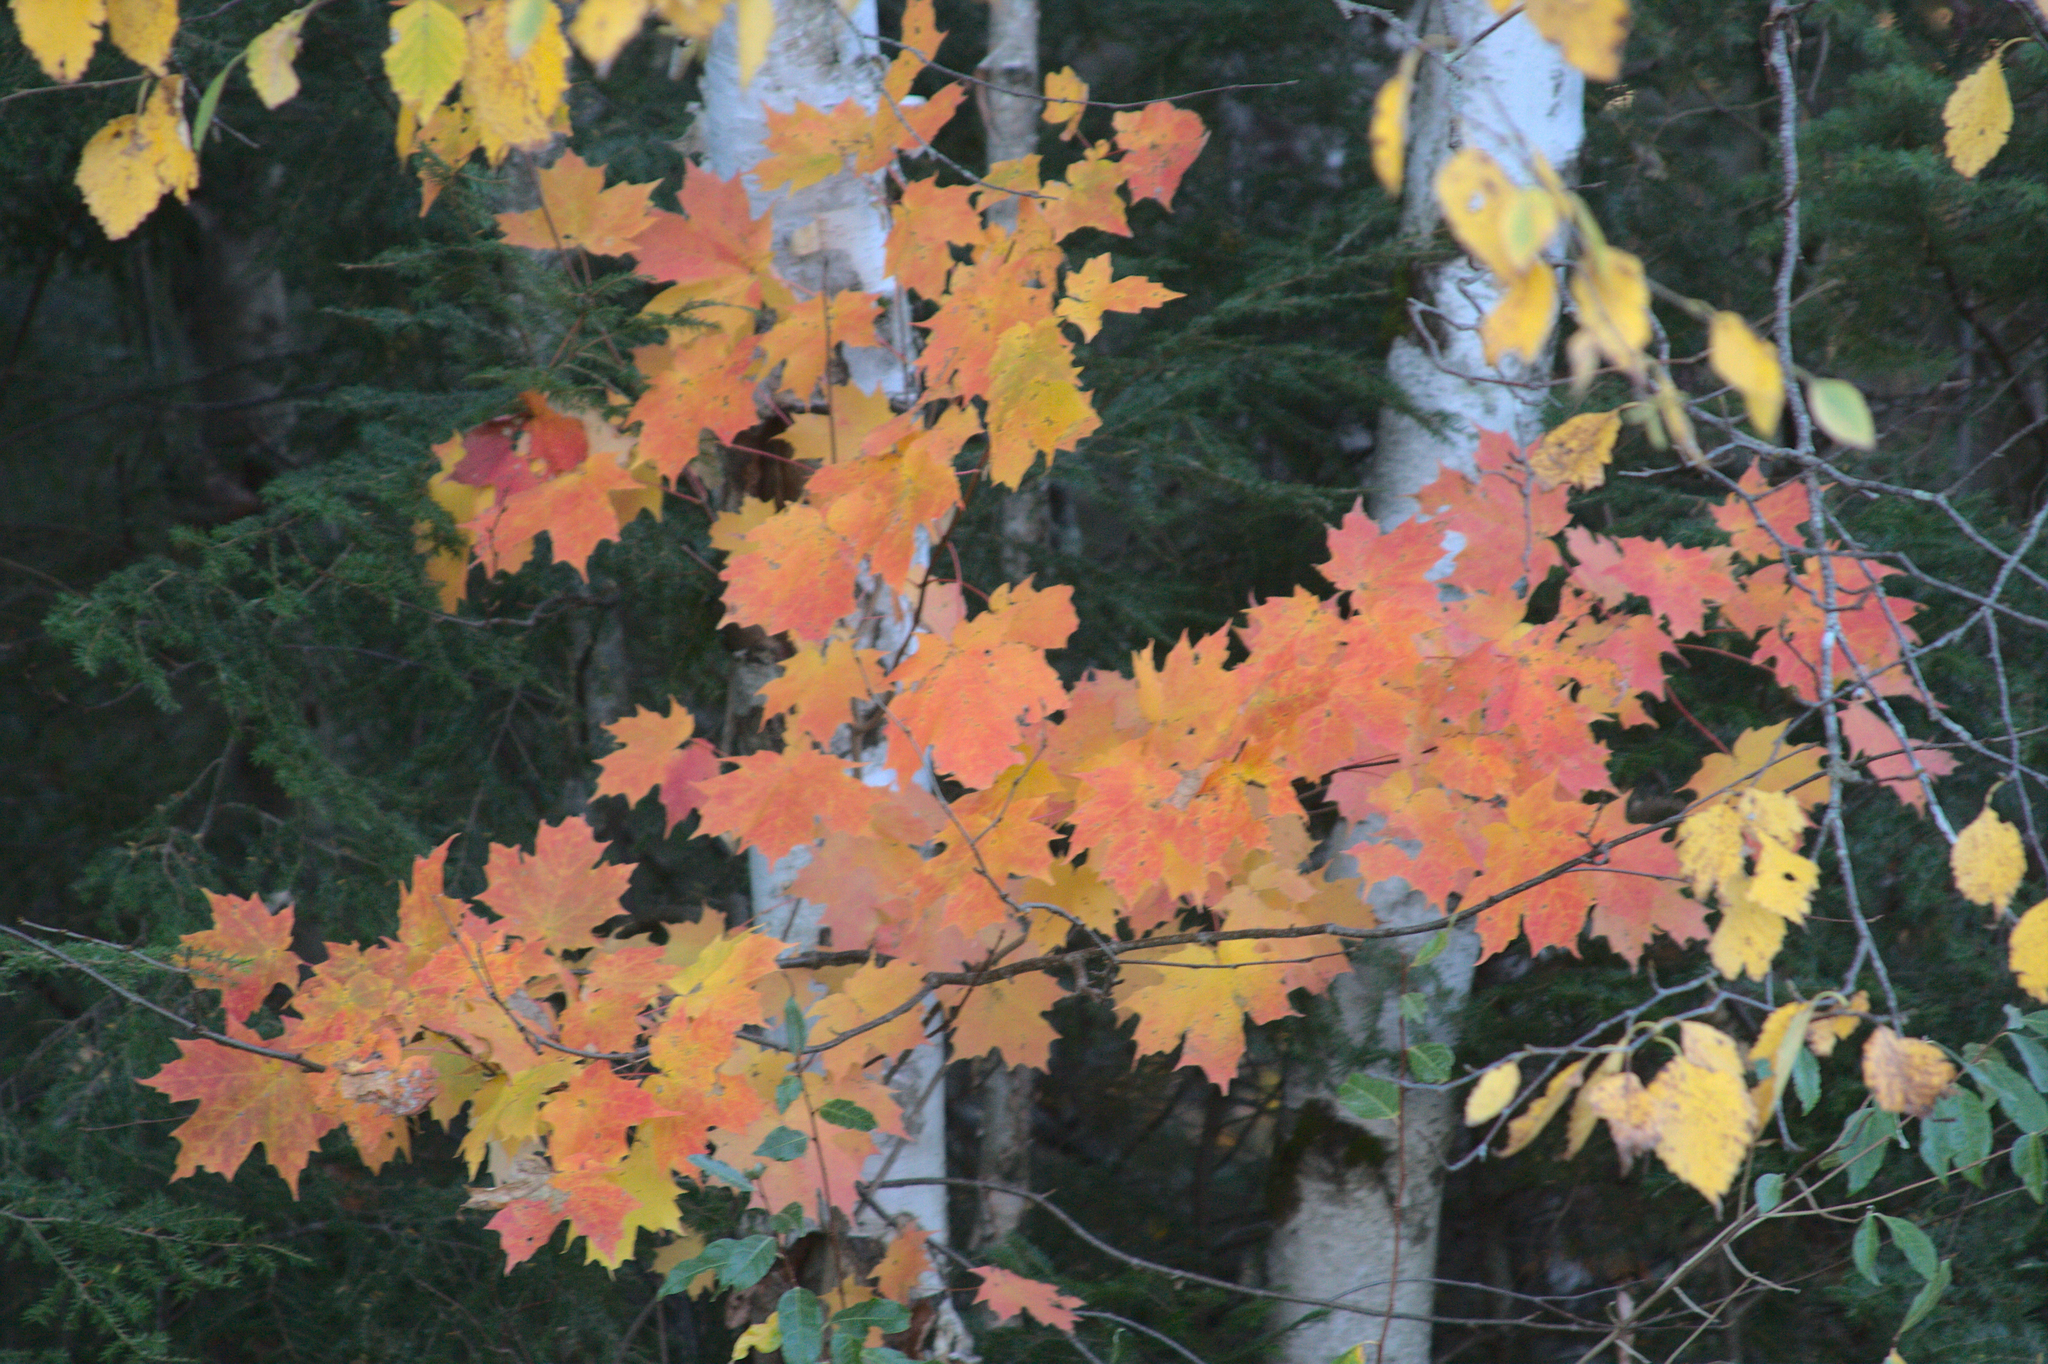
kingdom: Plantae
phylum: Tracheophyta
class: Magnoliopsida
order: Sapindales
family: Sapindaceae
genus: Acer
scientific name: Acer saccharum
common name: Sugar maple
